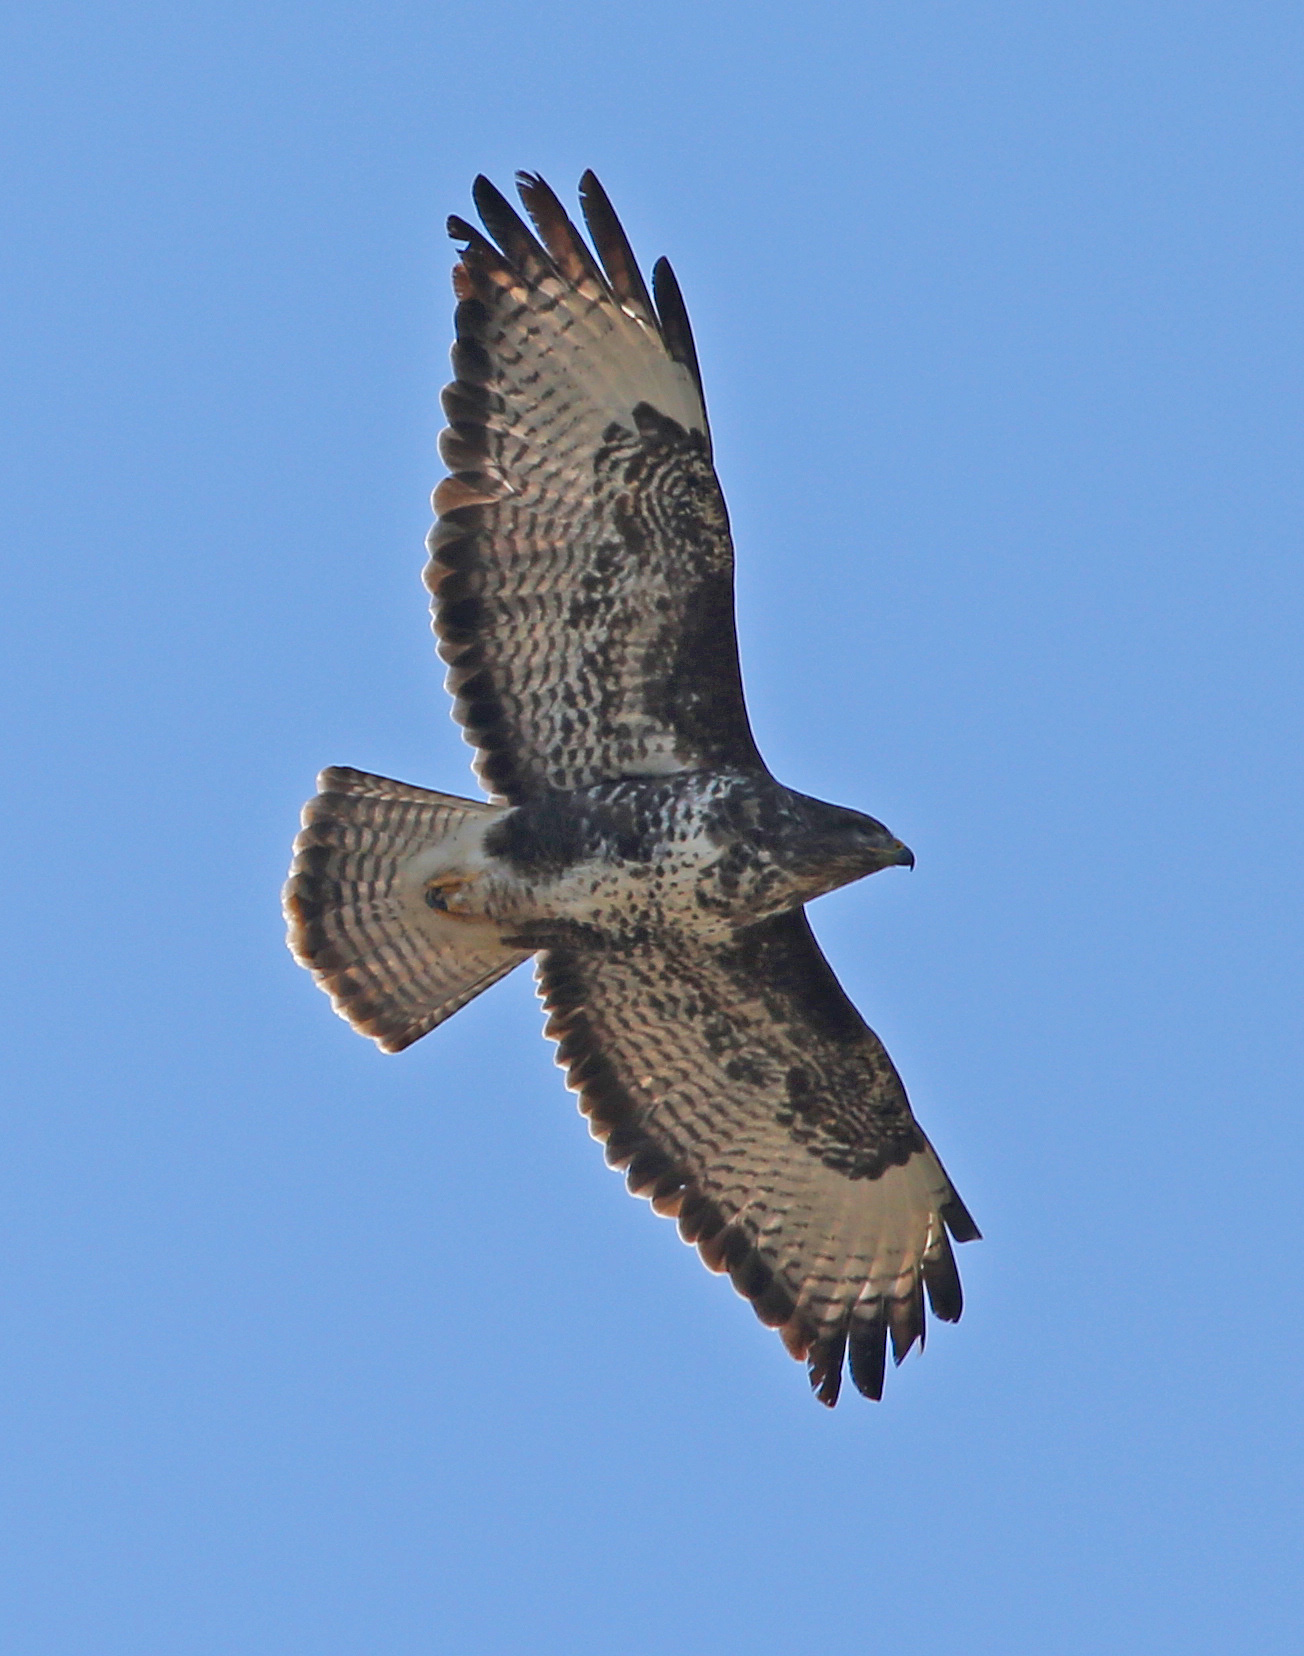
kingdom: Animalia
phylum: Chordata
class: Aves
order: Accipitriformes
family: Accipitridae
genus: Buteo
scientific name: Buteo buteo
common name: Common buzzard
